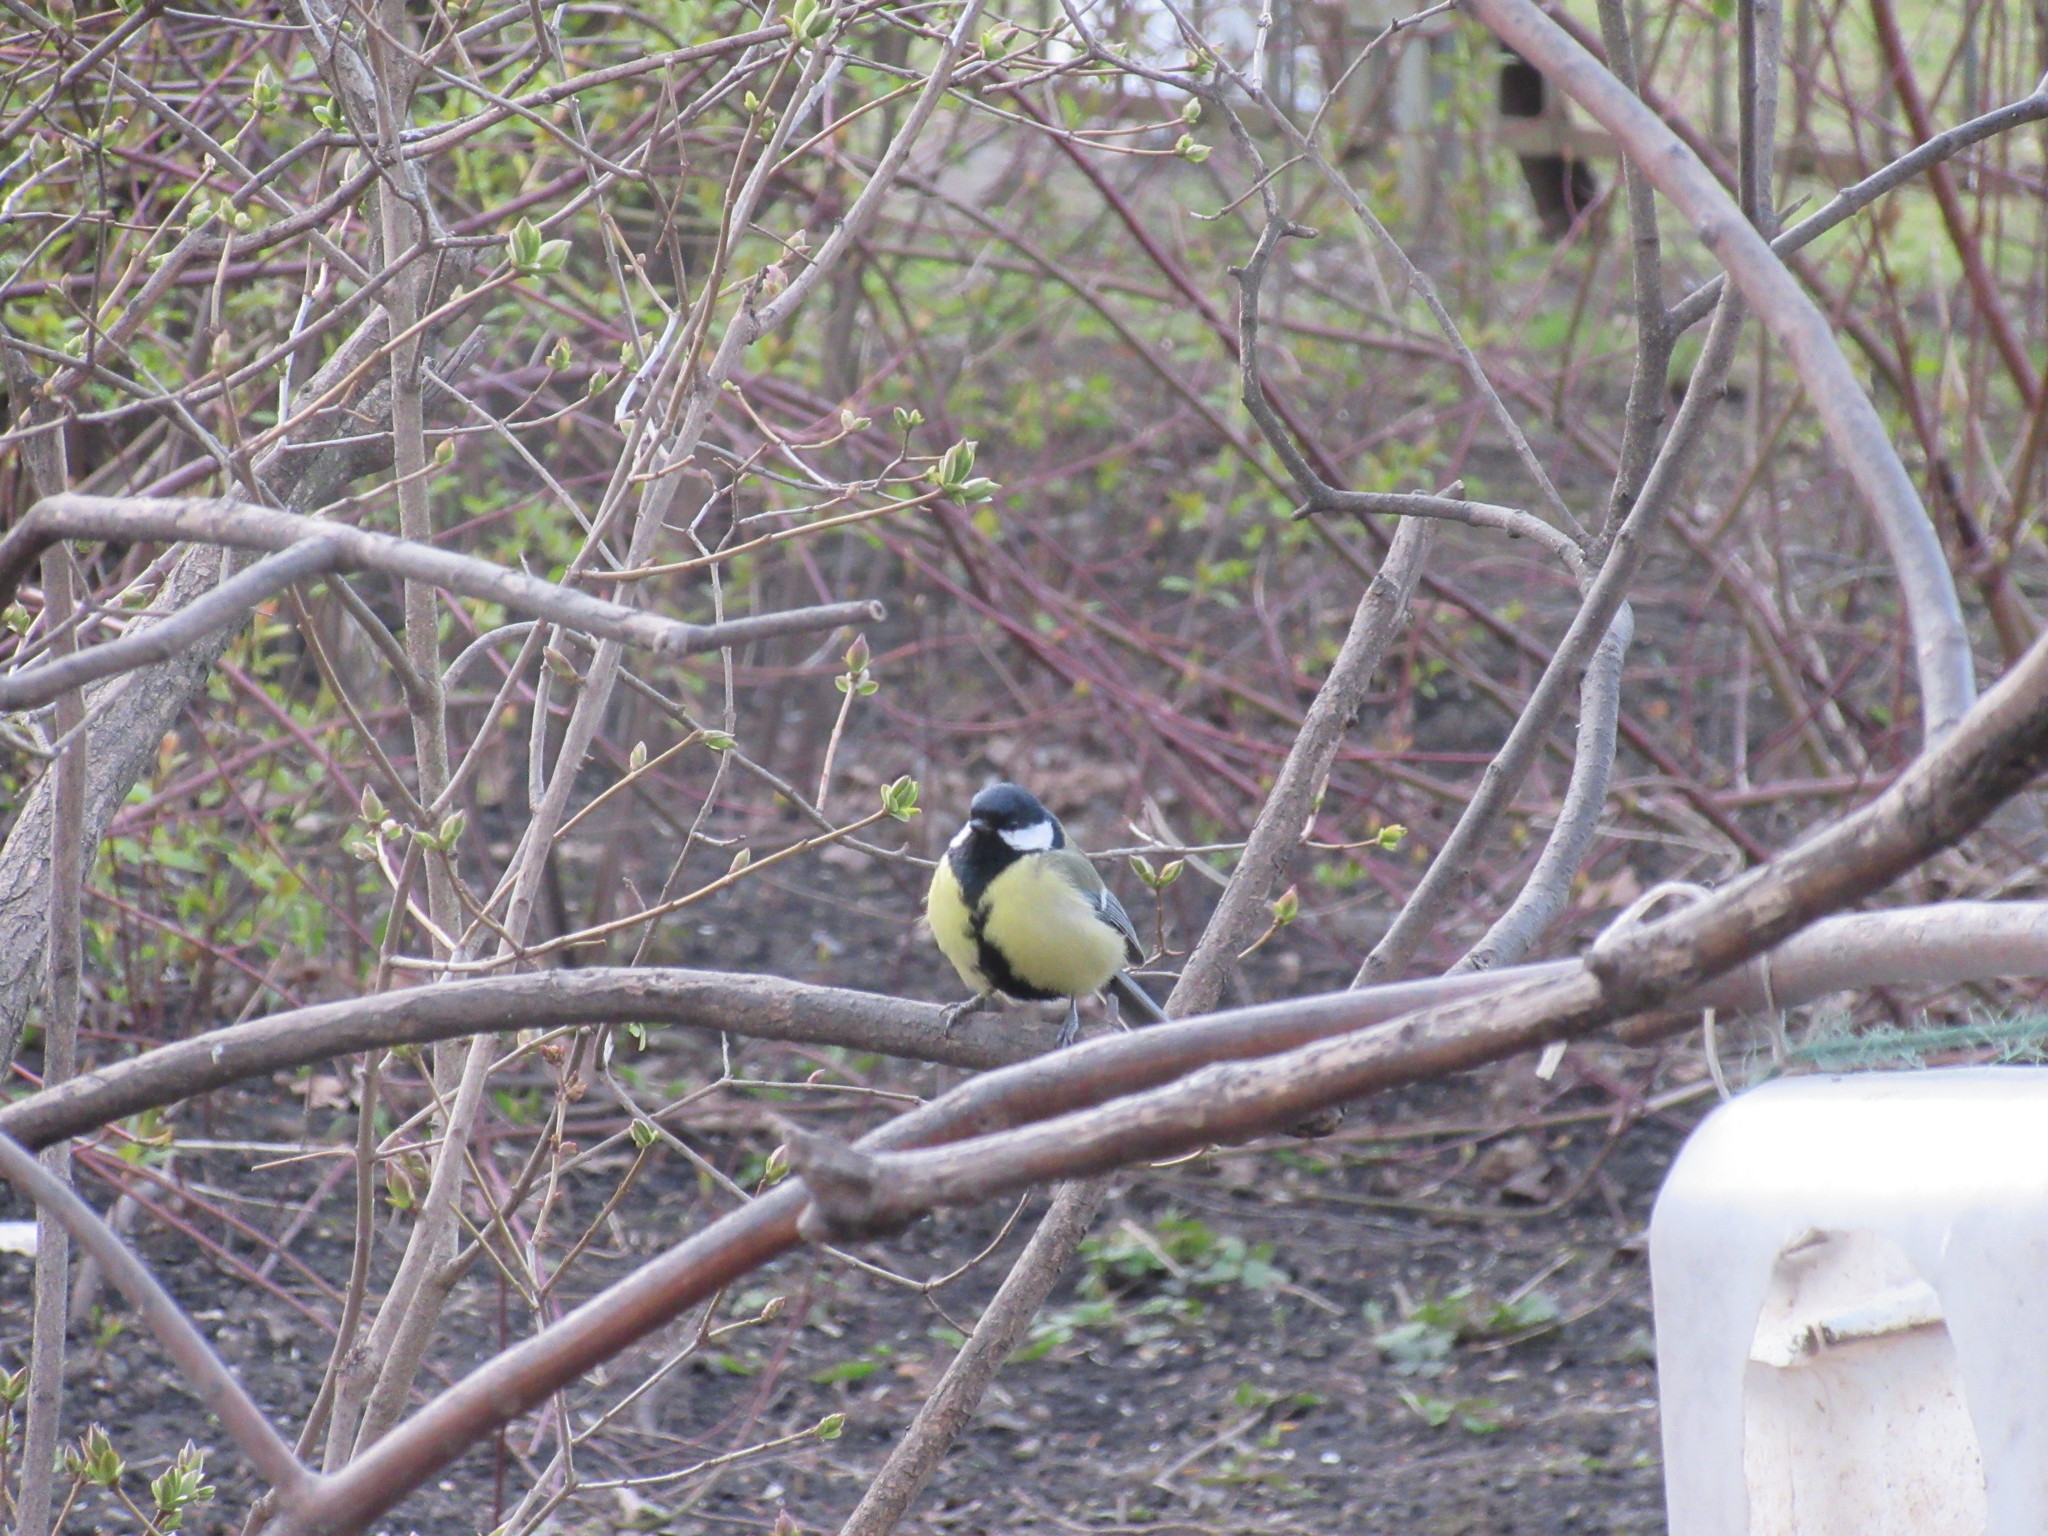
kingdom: Animalia
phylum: Chordata
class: Aves
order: Passeriformes
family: Paridae
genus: Parus
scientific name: Parus major
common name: Great tit
